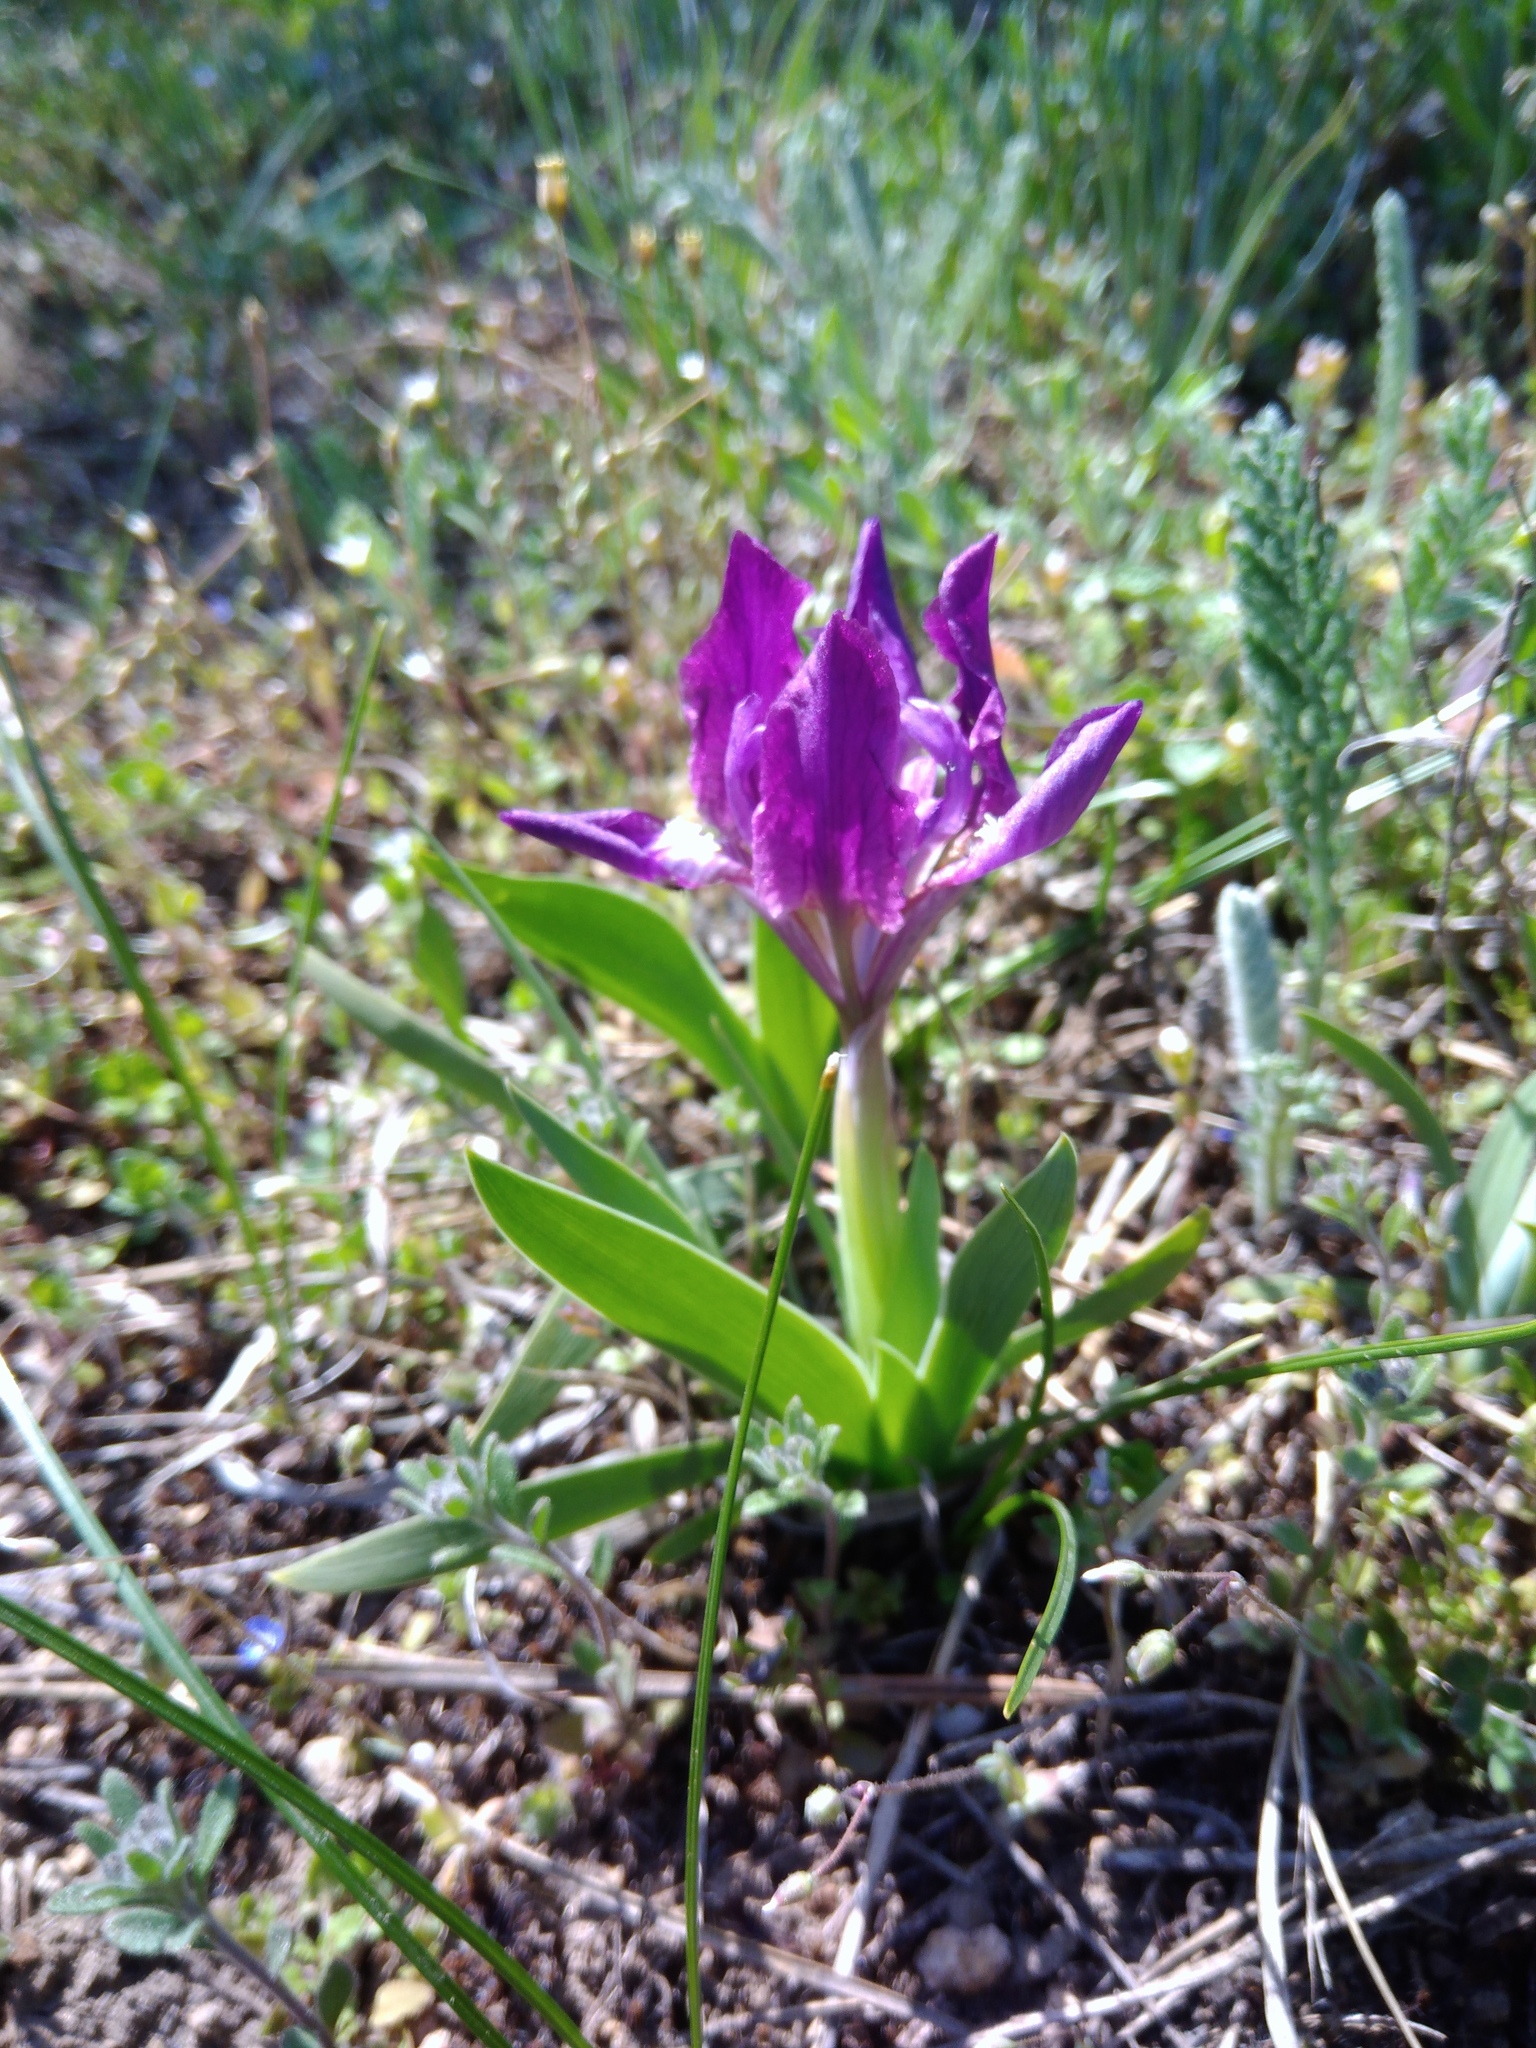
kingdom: Plantae
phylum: Tracheophyta
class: Liliopsida
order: Asparagales
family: Iridaceae
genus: Iris
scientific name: Iris pumila
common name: Dwarf iris
